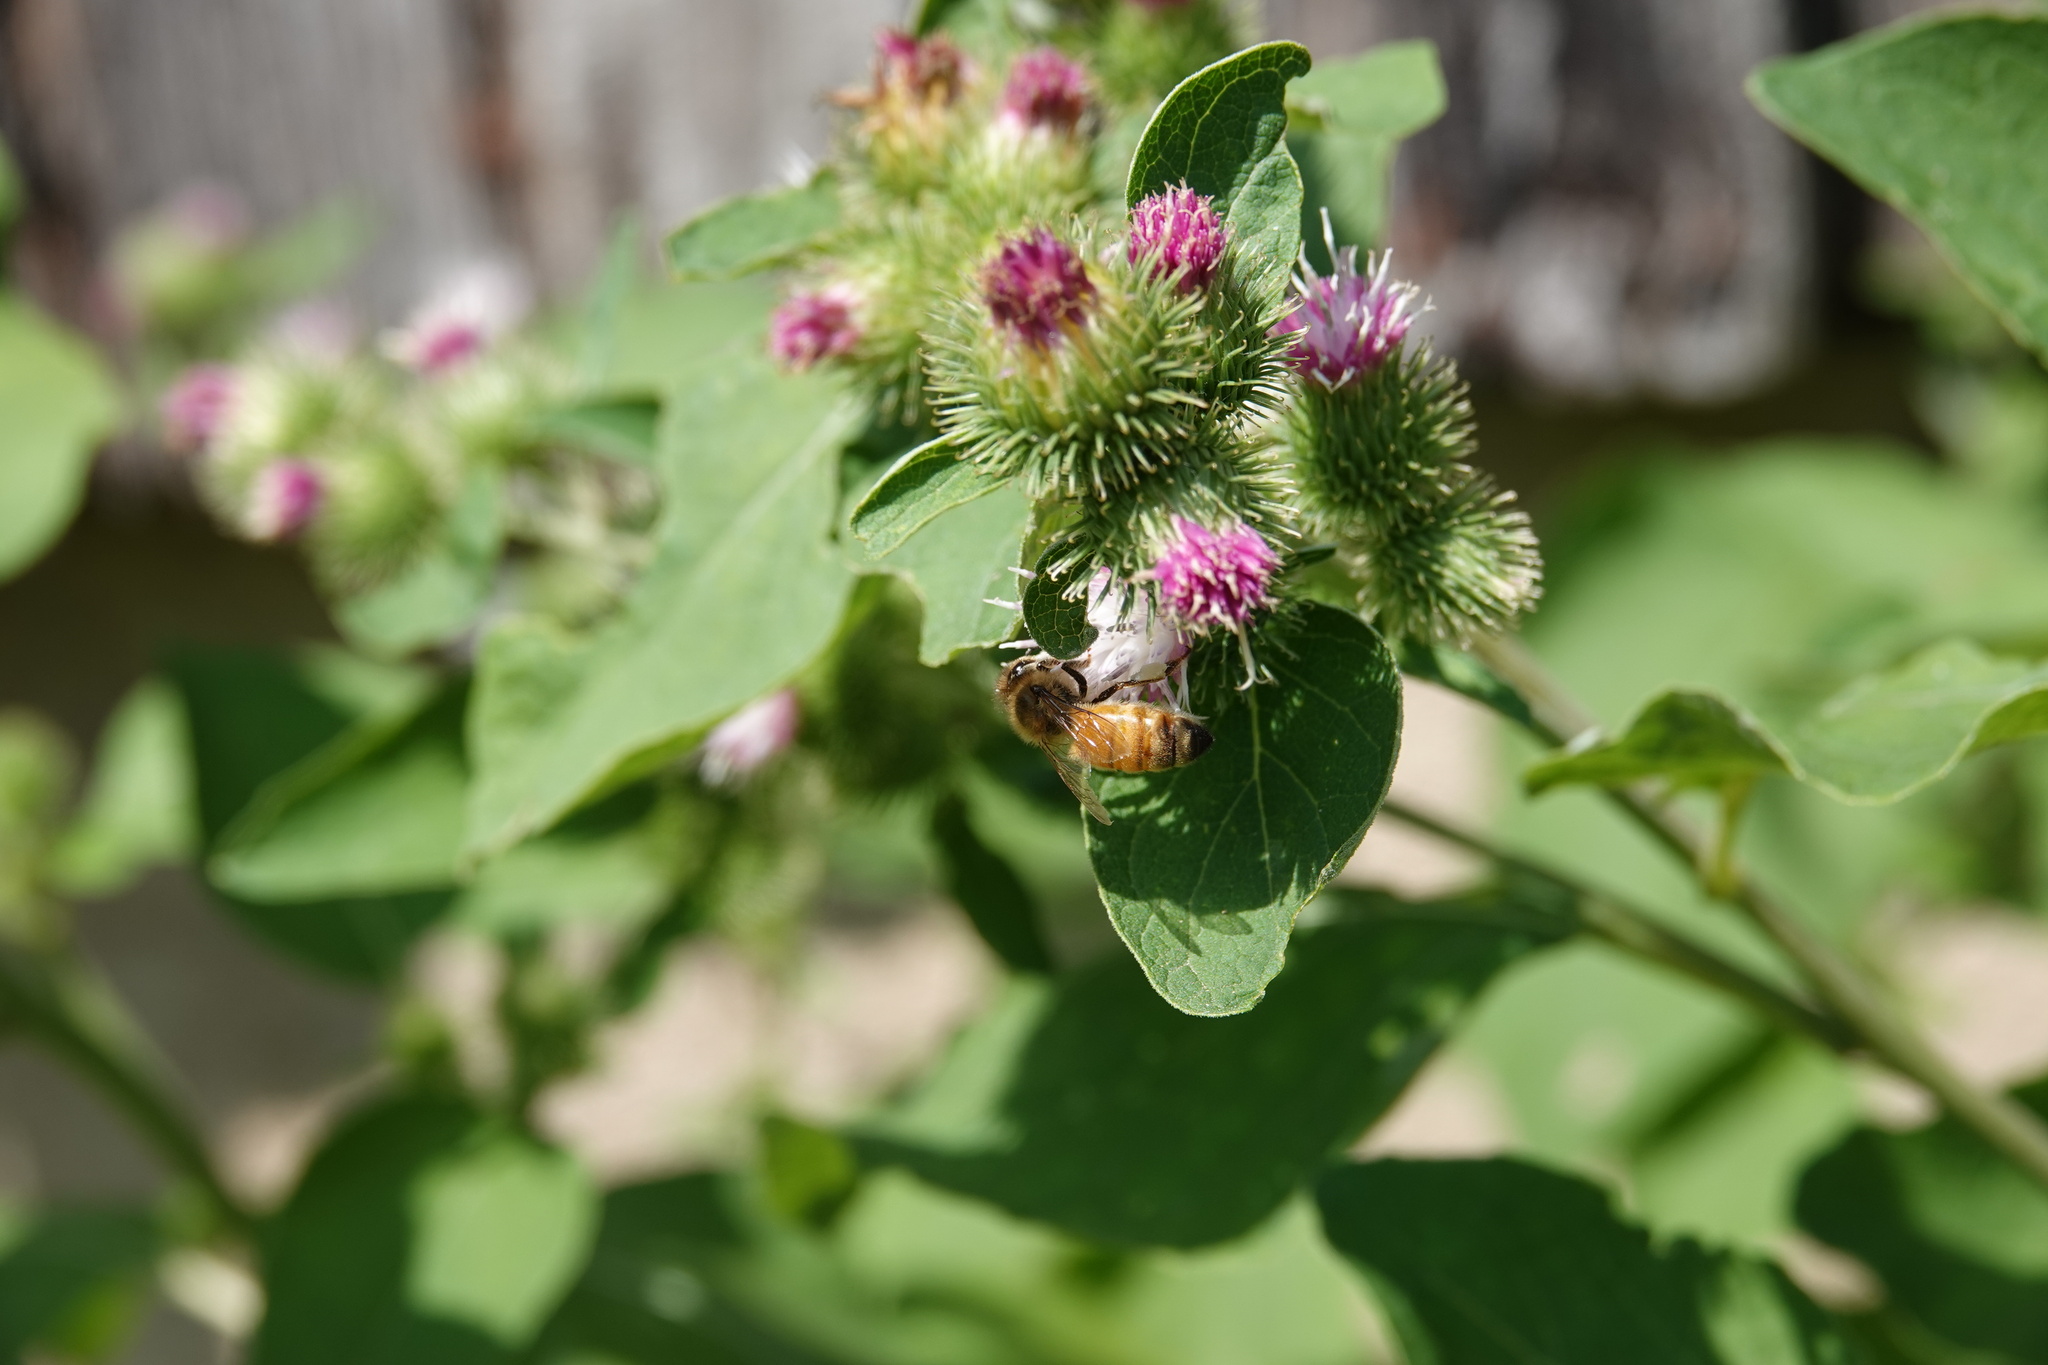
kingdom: Animalia
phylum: Arthropoda
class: Insecta
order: Hymenoptera
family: Apidae
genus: Apis
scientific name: Apis mellifera
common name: Honey bee
